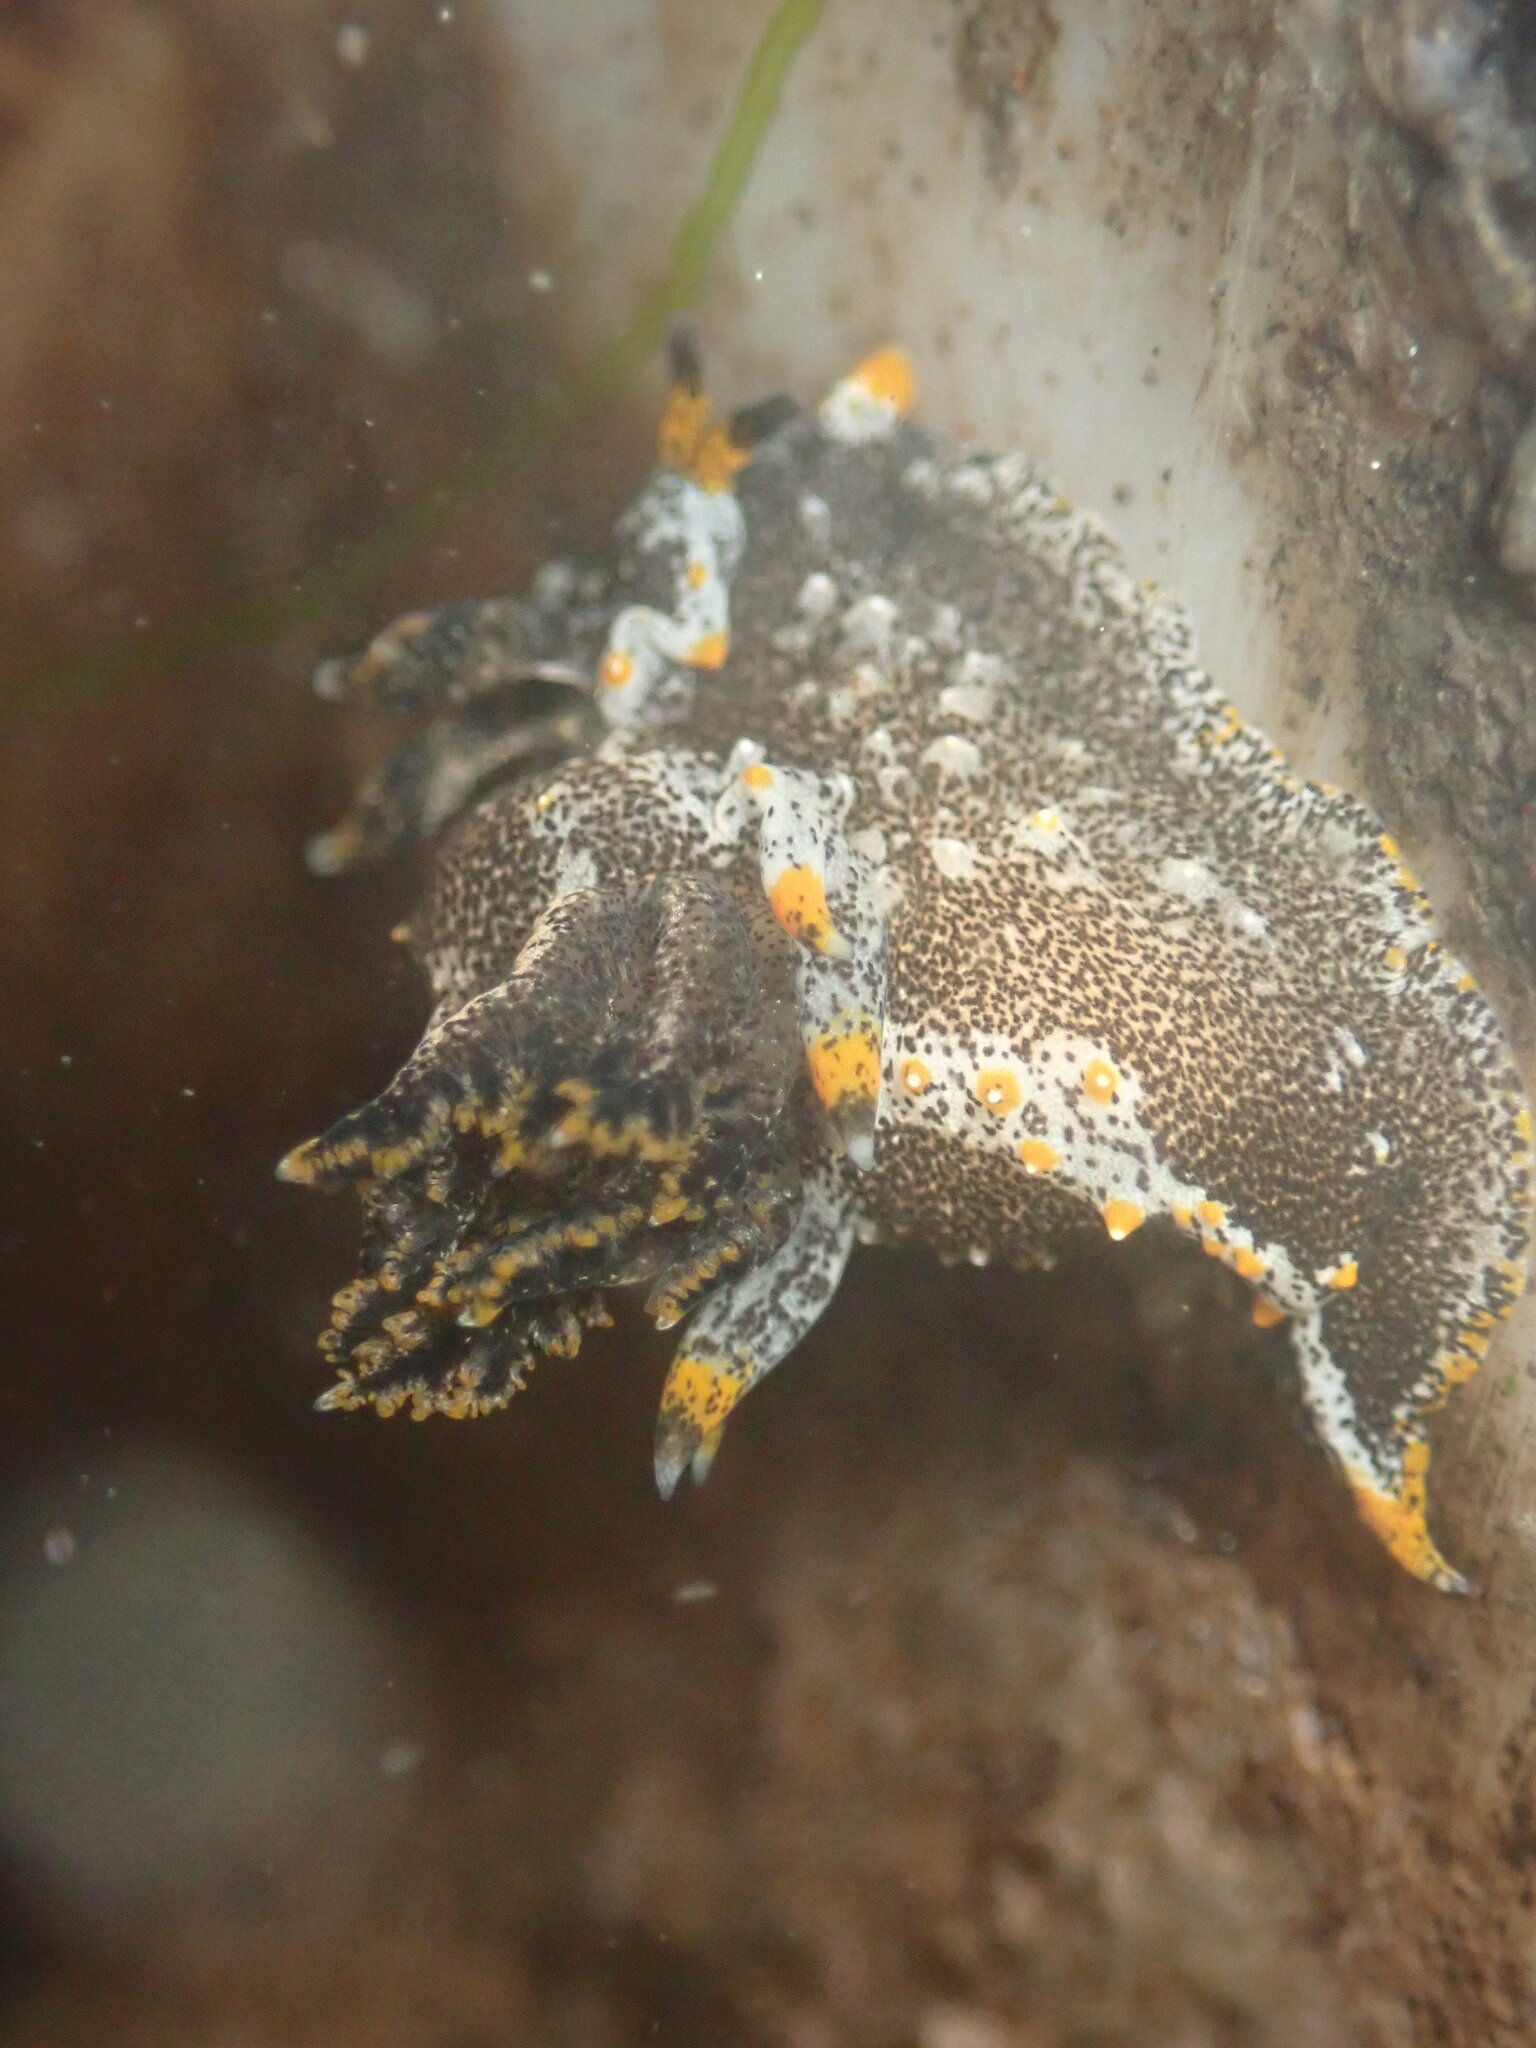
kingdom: Animalia
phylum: Mollusca
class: Gastropoda
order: Nudibranchia
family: Polyceridae
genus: Polycera
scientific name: Polycera hedgpethi
